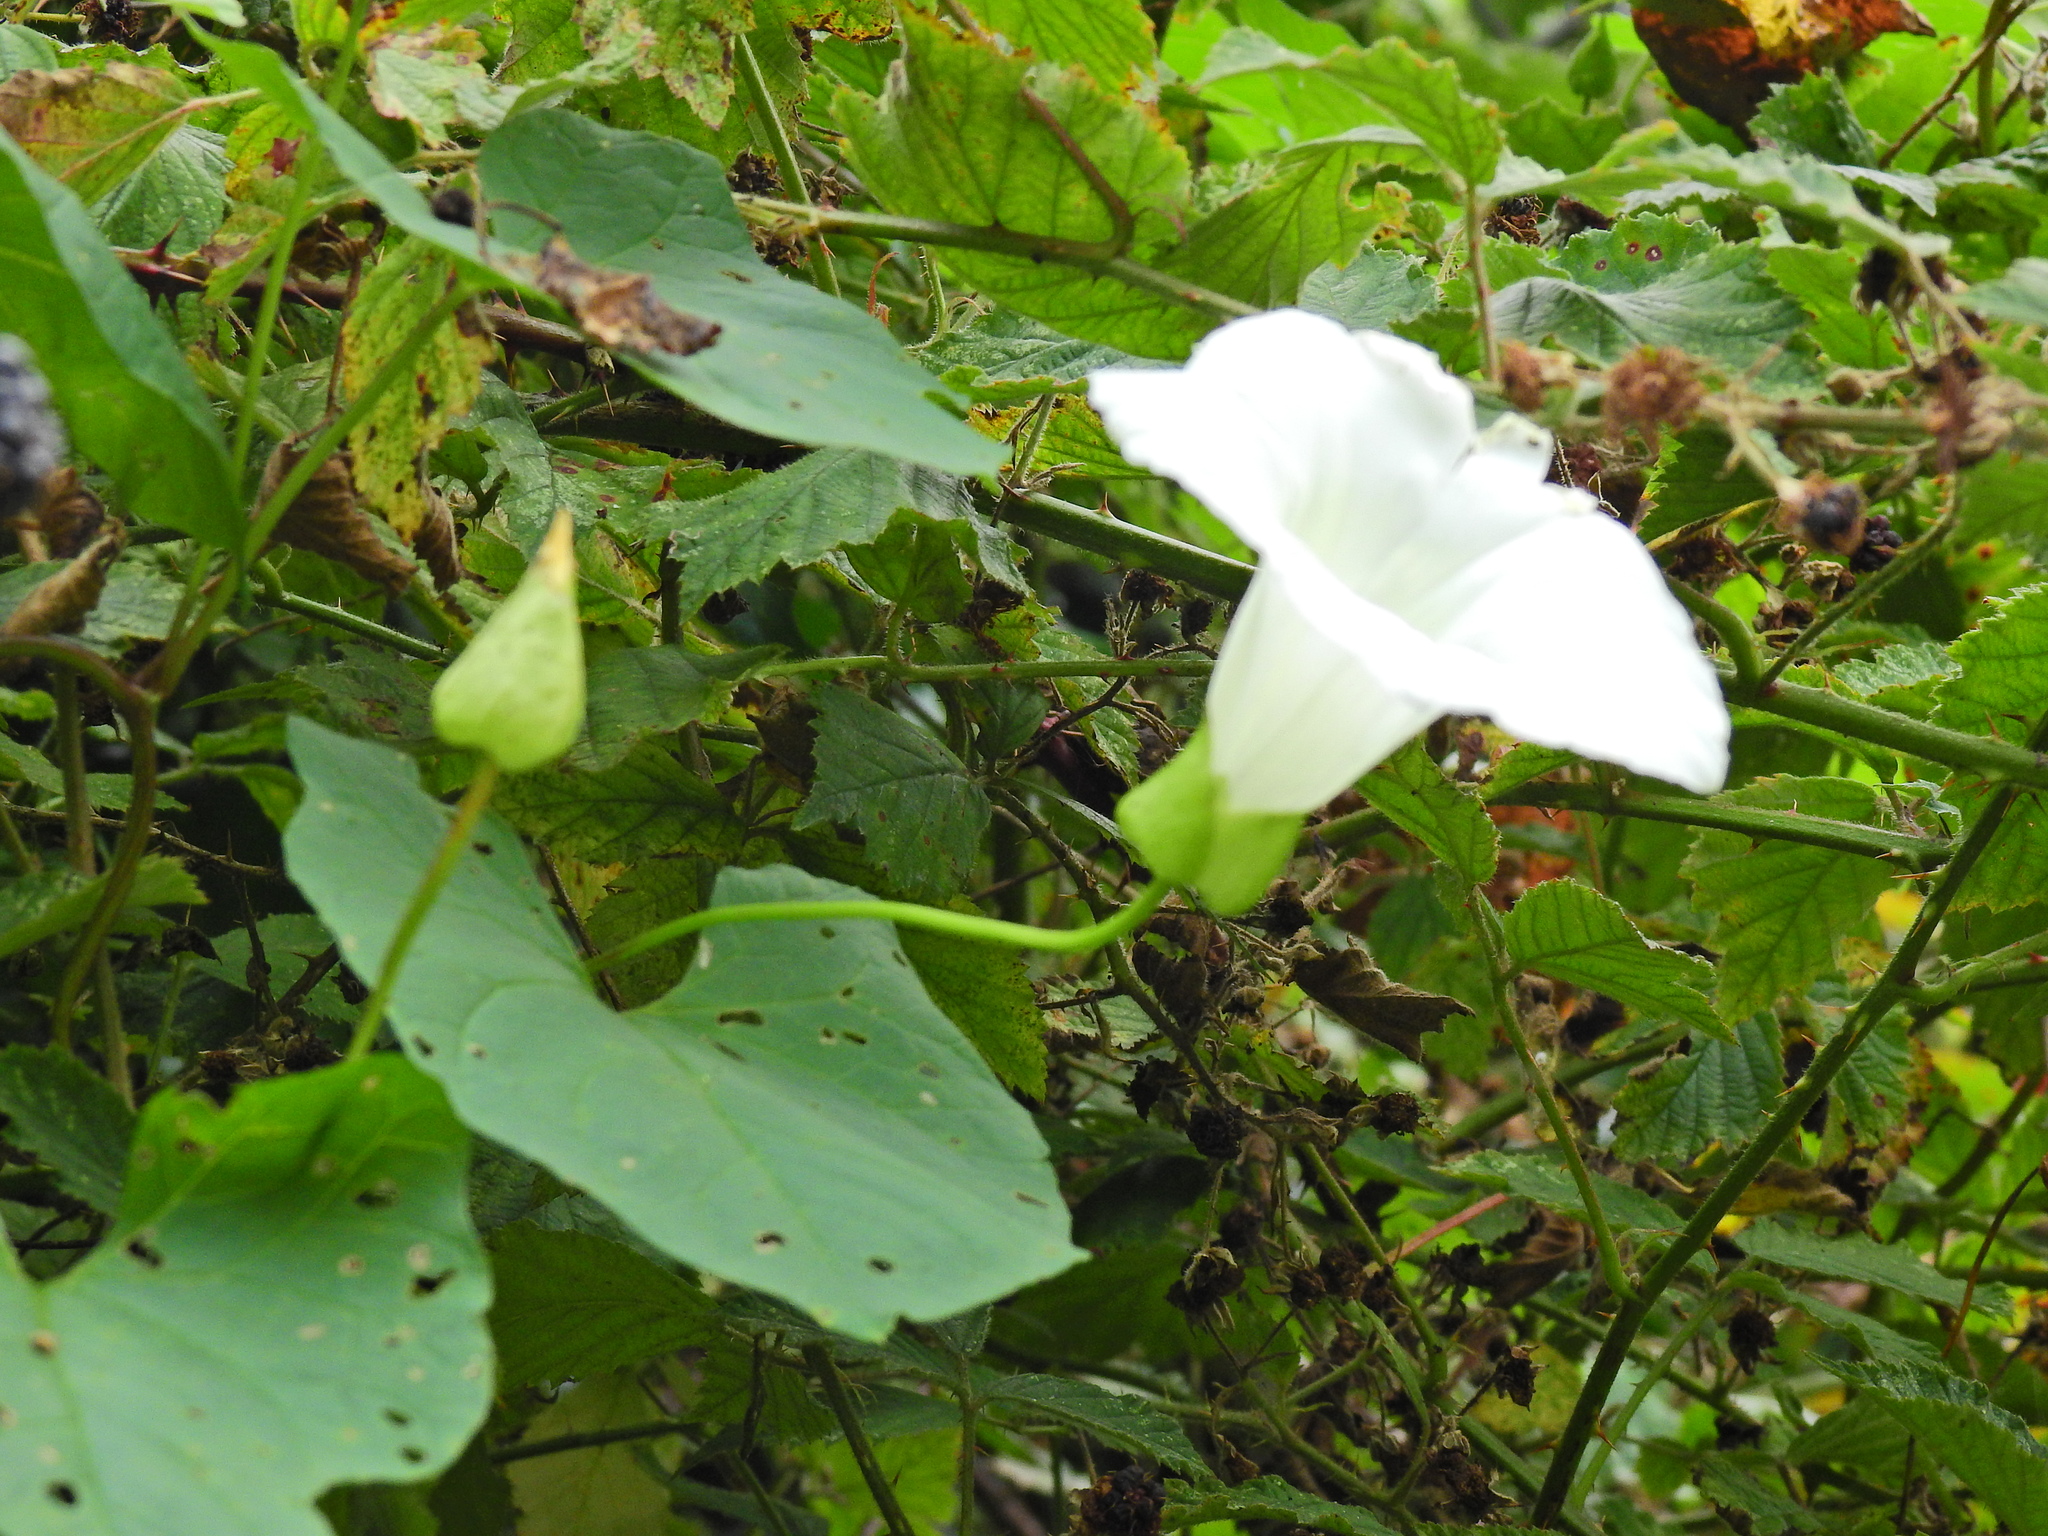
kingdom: Plantae
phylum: Tracheophyta
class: Magnoliopsida
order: Solanales
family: Convolvulaceae
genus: Calystegia
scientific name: Calystegia silvatica
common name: Large bindweed
